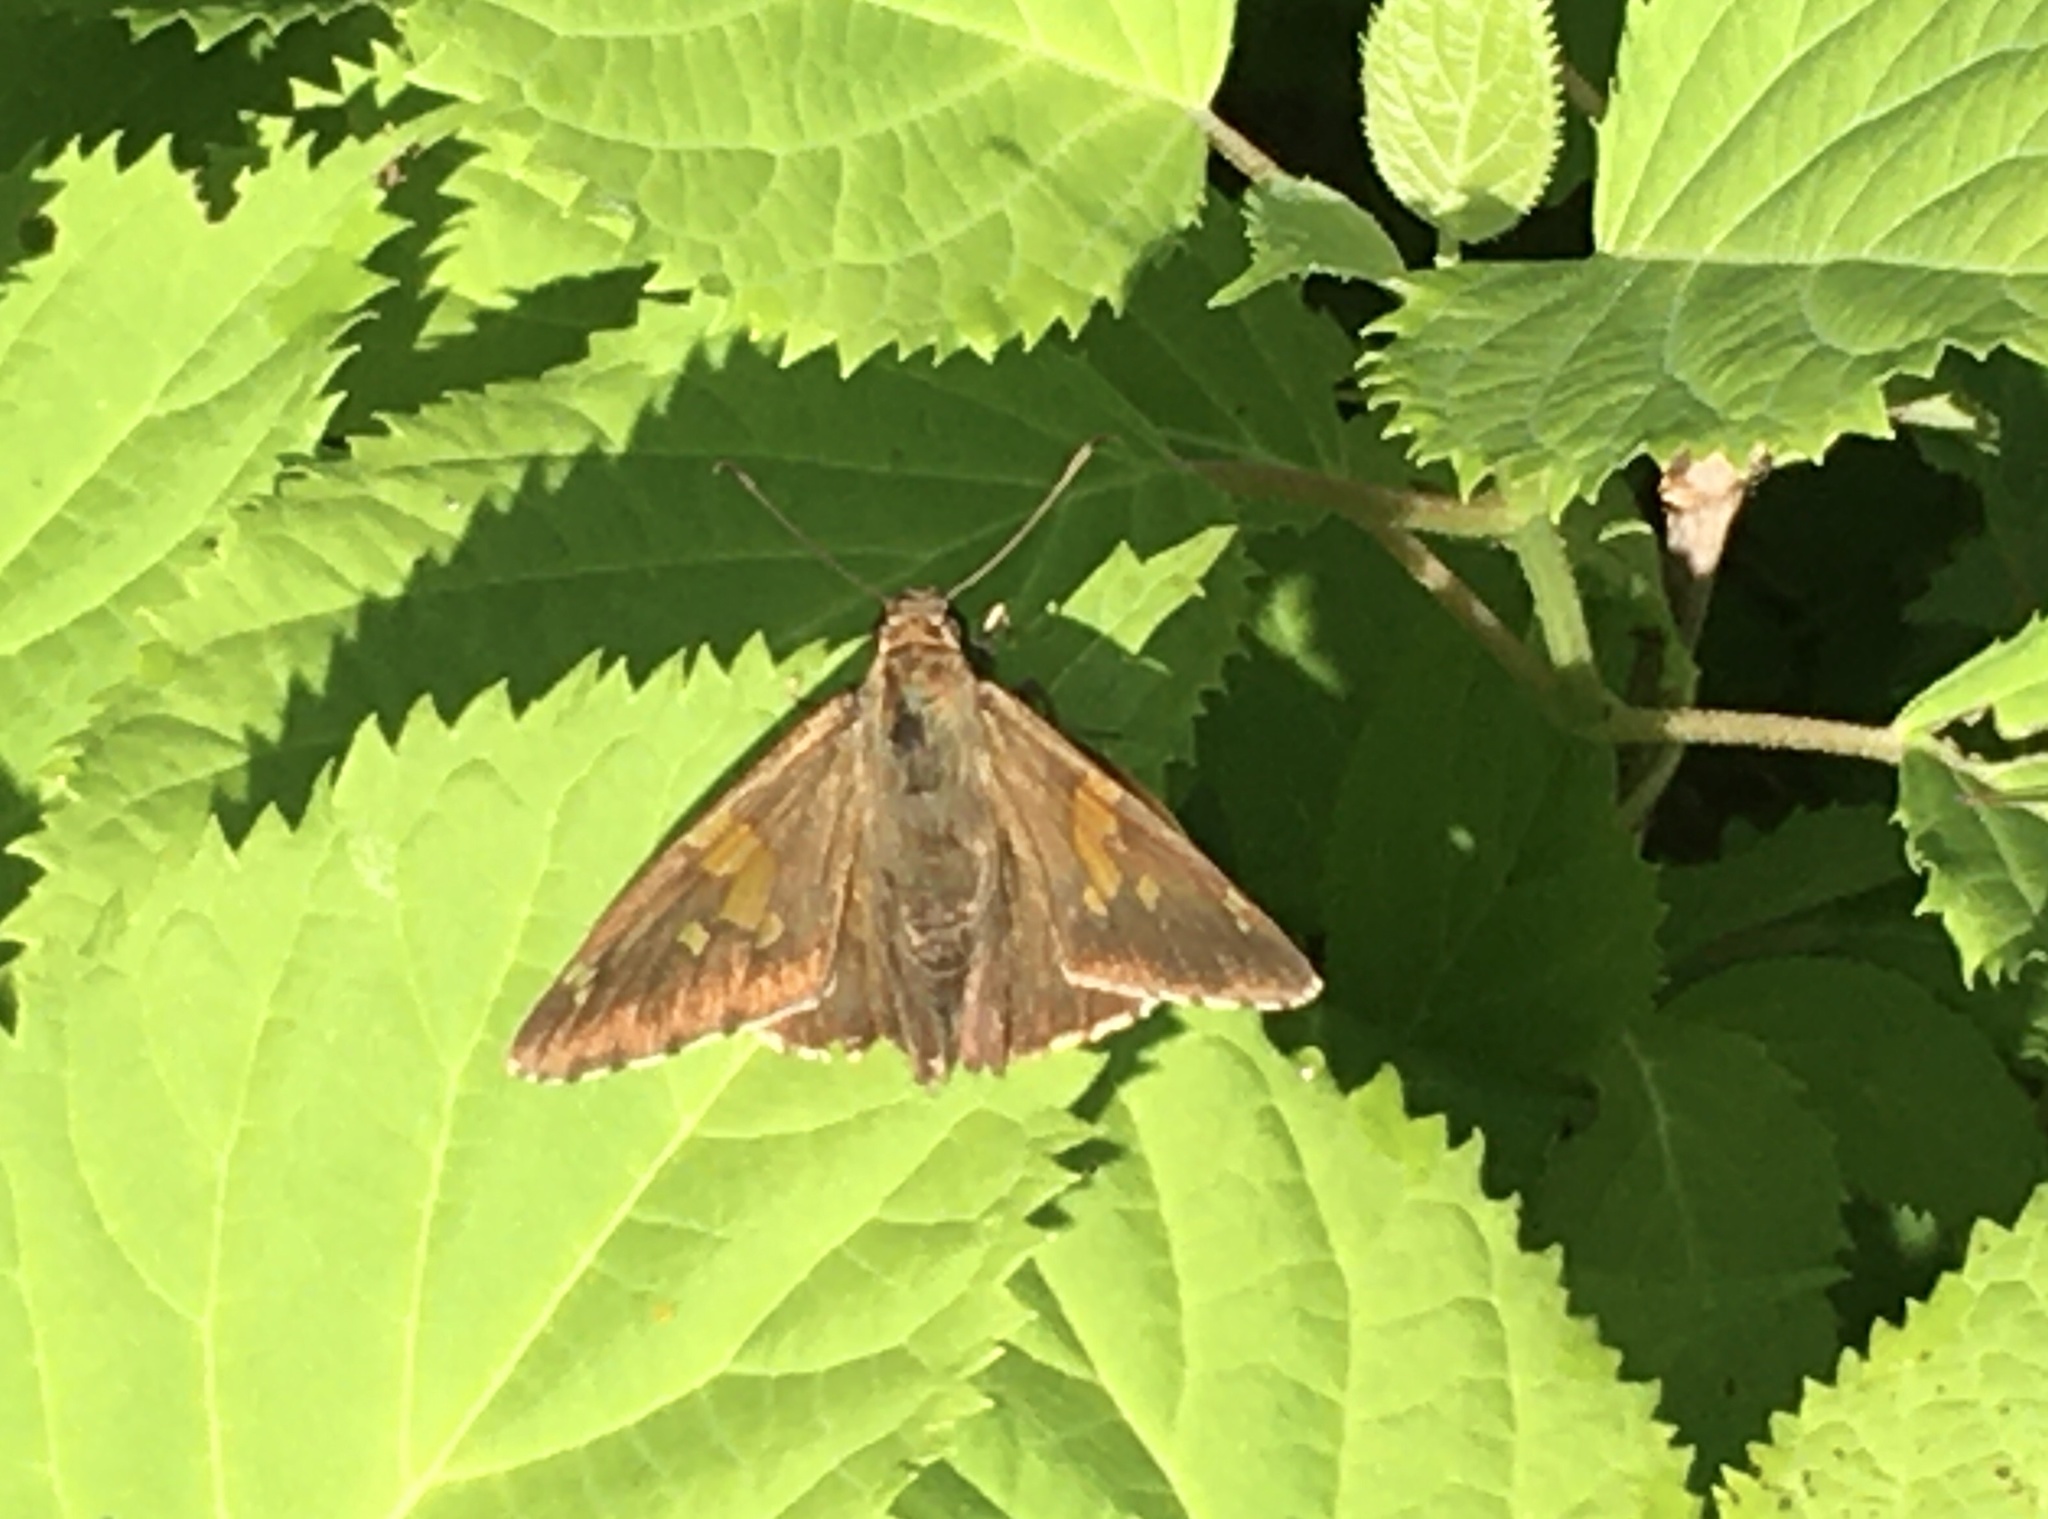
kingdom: Animalia
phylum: Arthropoda
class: Insecta
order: Lepidoptera
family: Hesperiidae
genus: Epargyreus
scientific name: Epargyreus clarus
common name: Silver-spotted skipper
